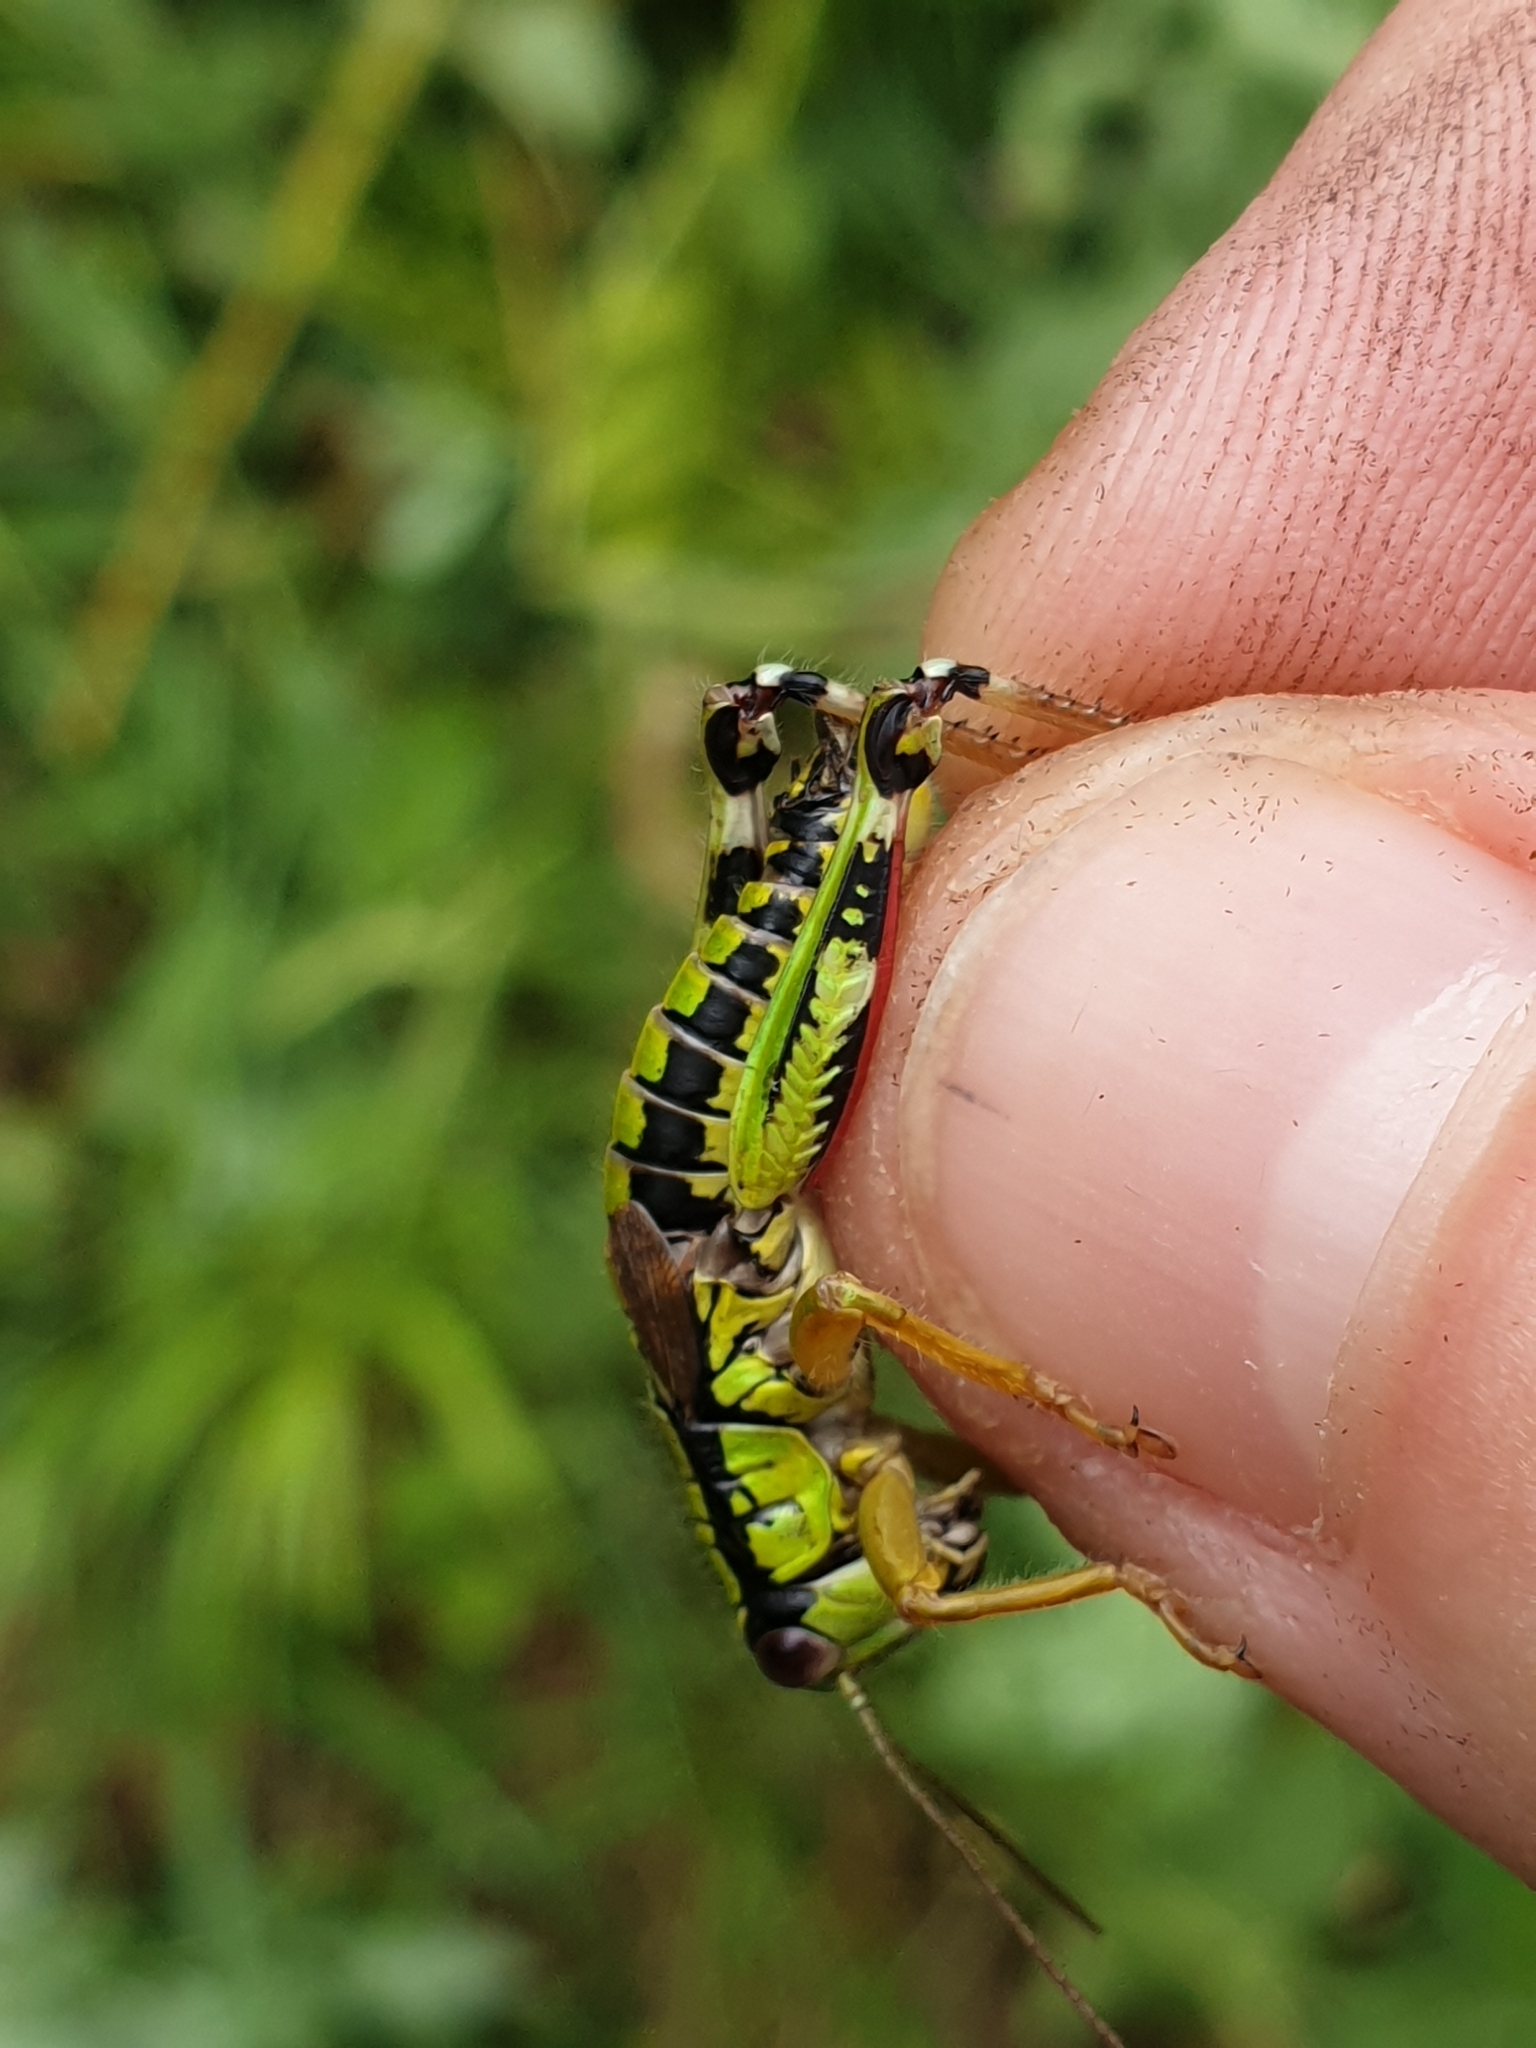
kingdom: Animalia
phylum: Arthropoda
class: Insecta
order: Orthoptera
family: Acrididae
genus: Miramella
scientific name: Miramella alpina
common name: Green mountain grasshopper
